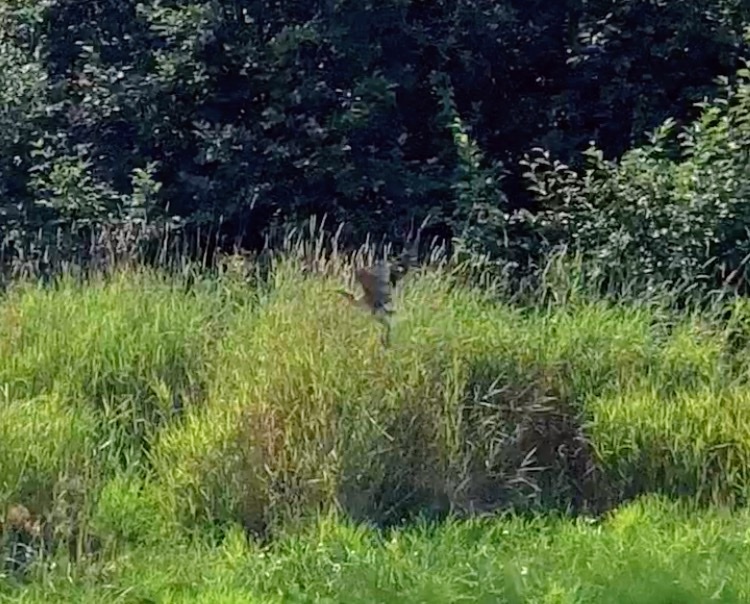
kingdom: Animalia
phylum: Chordata
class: Aves
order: Pelecaniformes
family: Ardeidae
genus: Botaurus
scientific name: Botaurus lentiginosus
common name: American bittern
